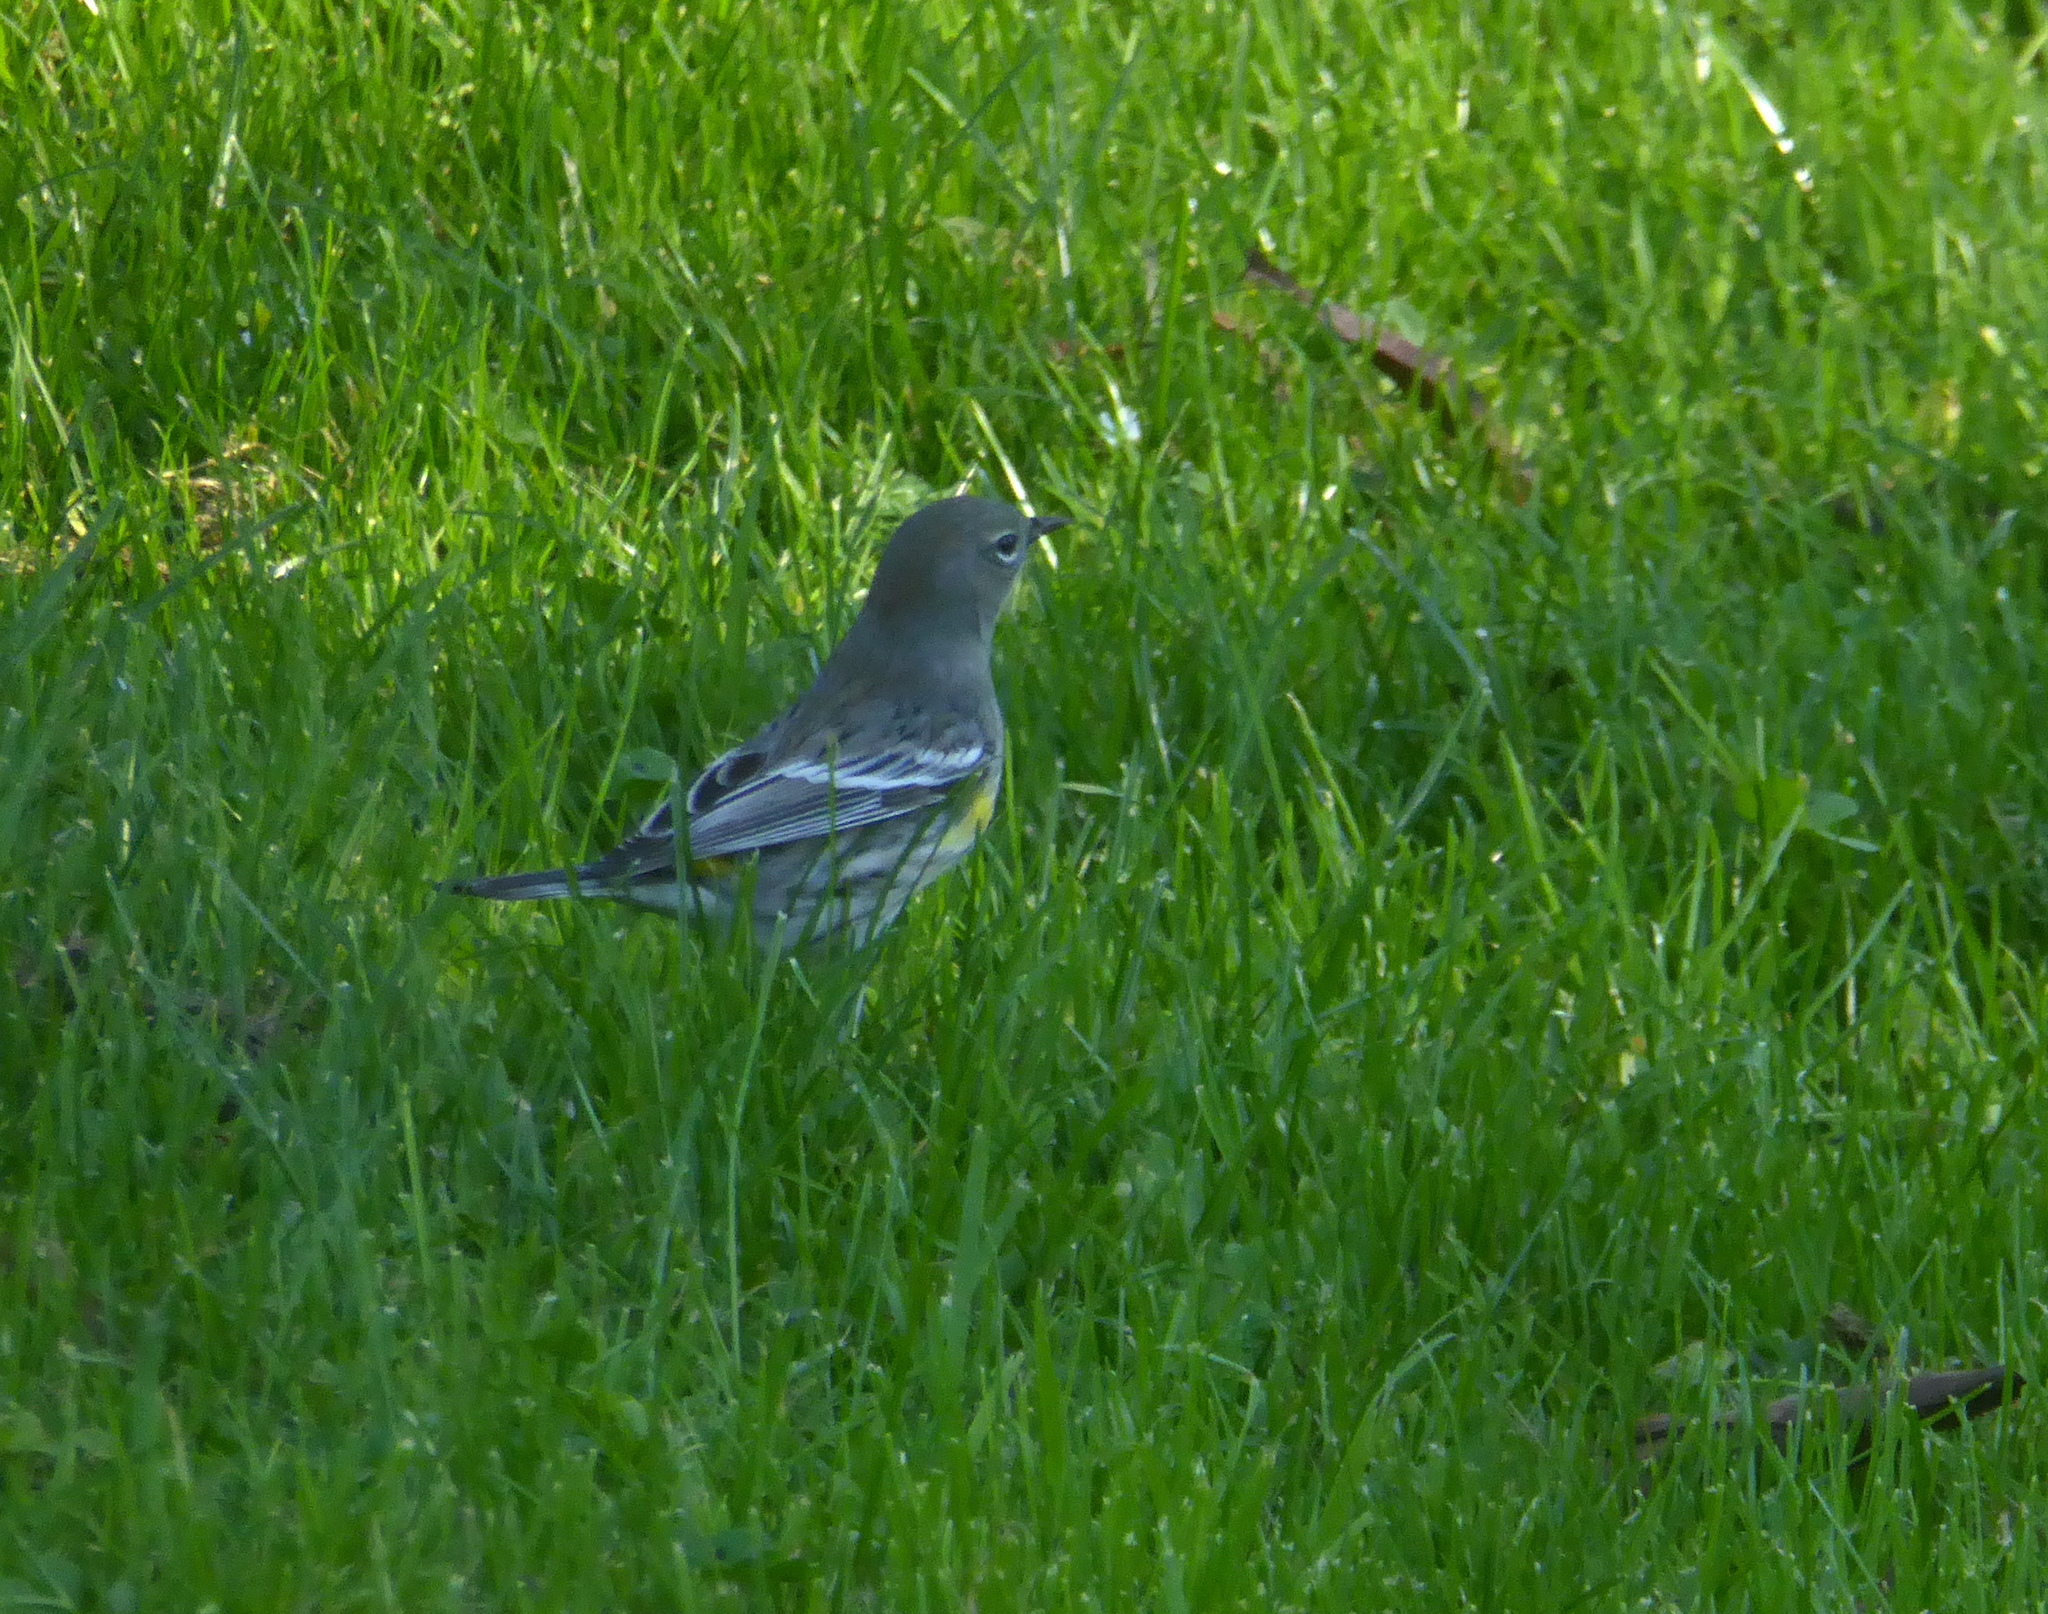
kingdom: Animalia
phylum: Chordata
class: Aves
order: Passeriformes
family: Parulidae
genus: Setophaga
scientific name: Setophaga auduboni
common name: Audubon's warbler
